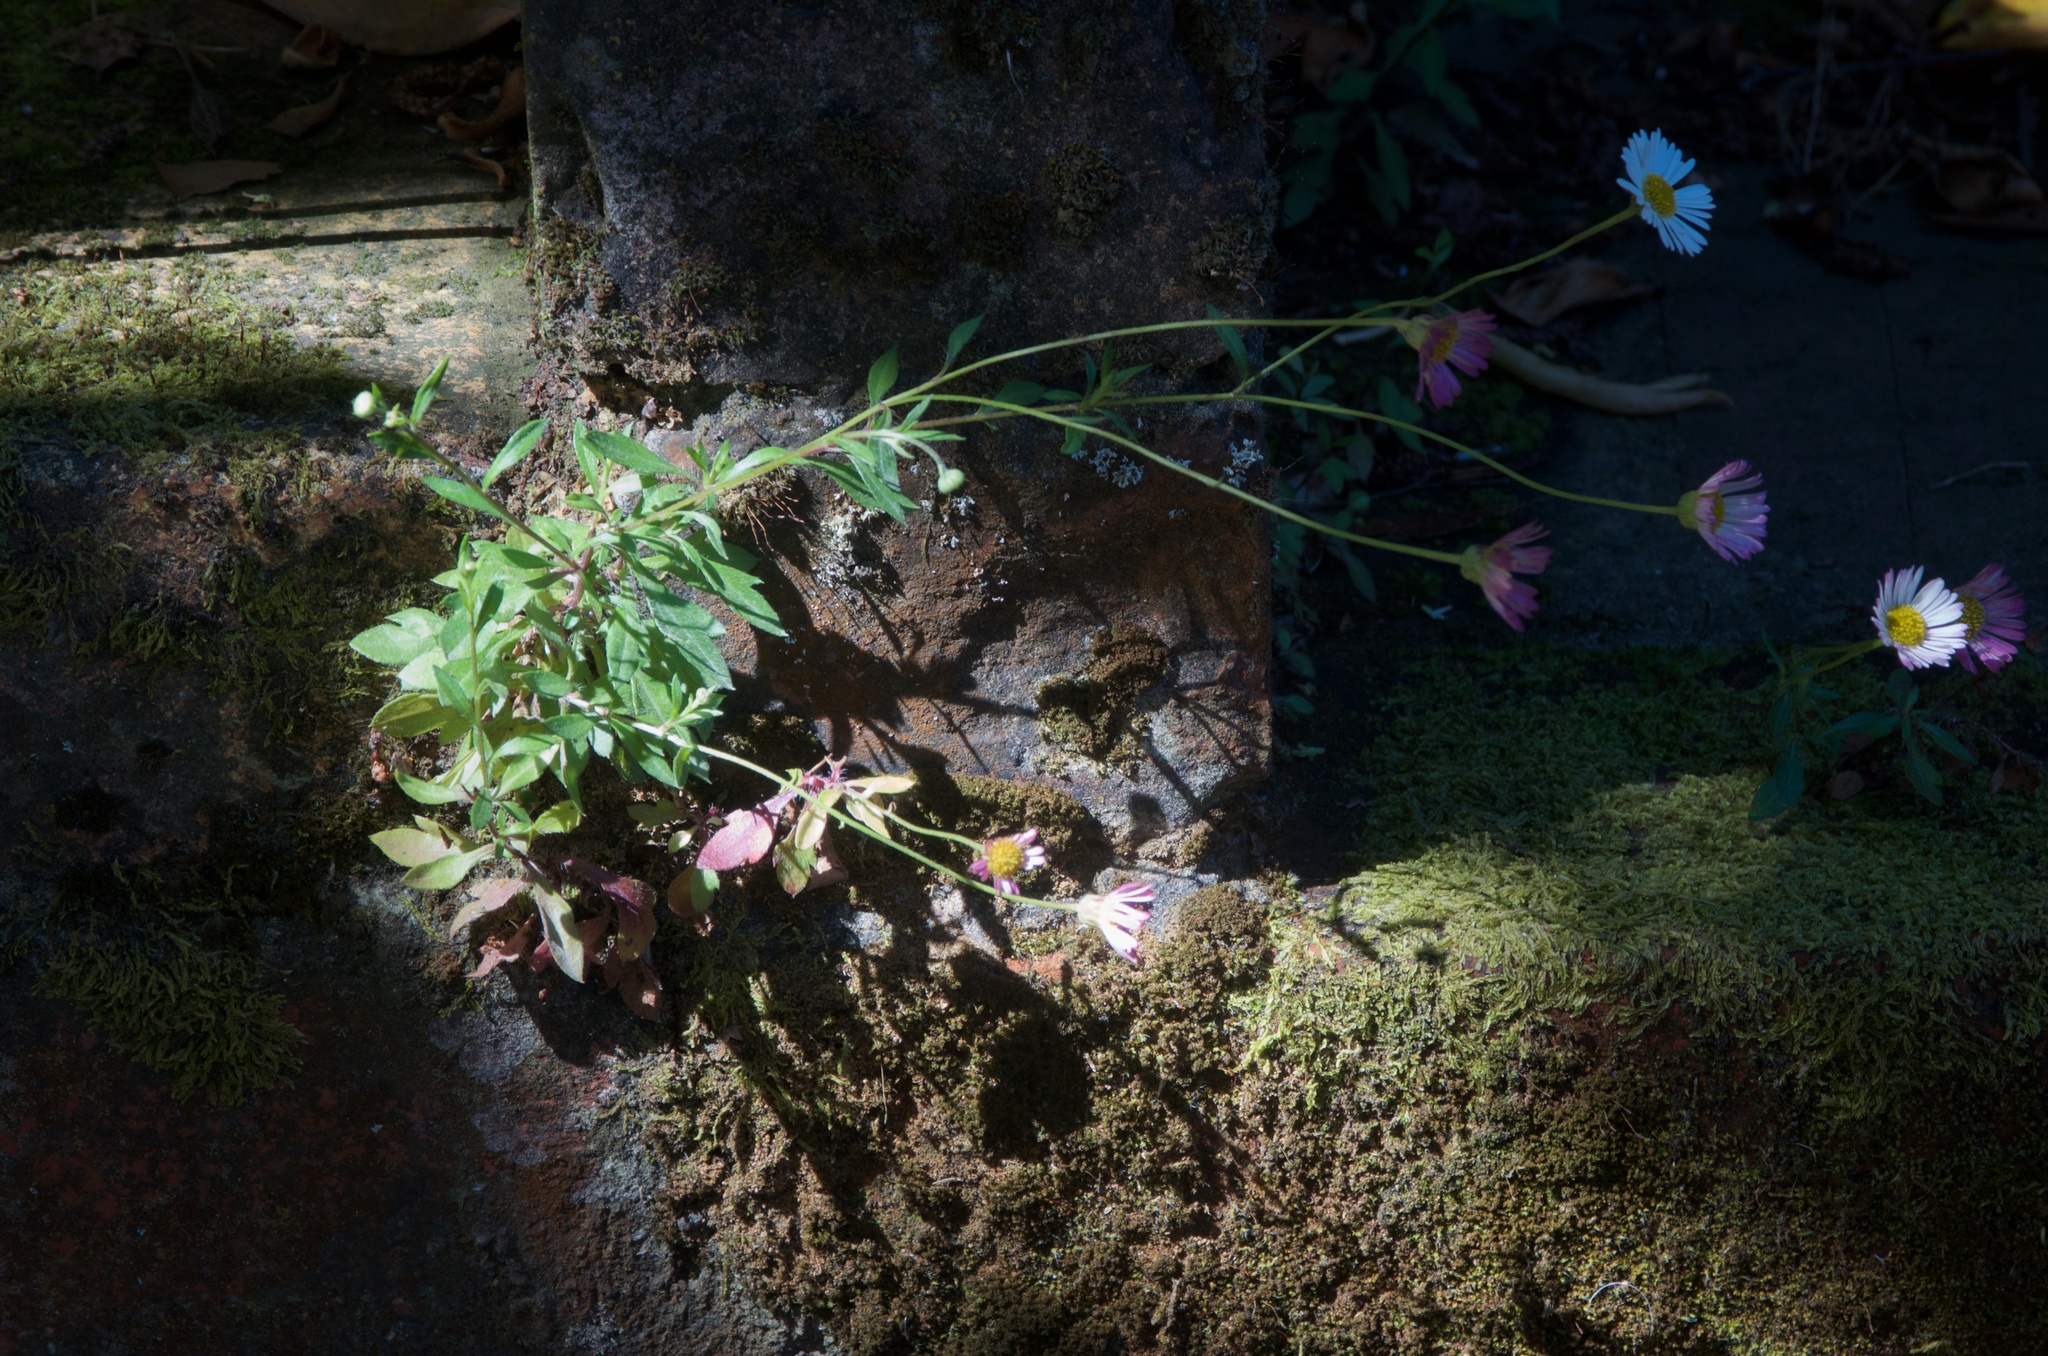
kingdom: Plantae
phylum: Tracheophyta
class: Magnoliopsida
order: Asterales
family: Asteraceae
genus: Erigeron
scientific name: Erigeron karvinskianus
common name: Mexican fleabane
